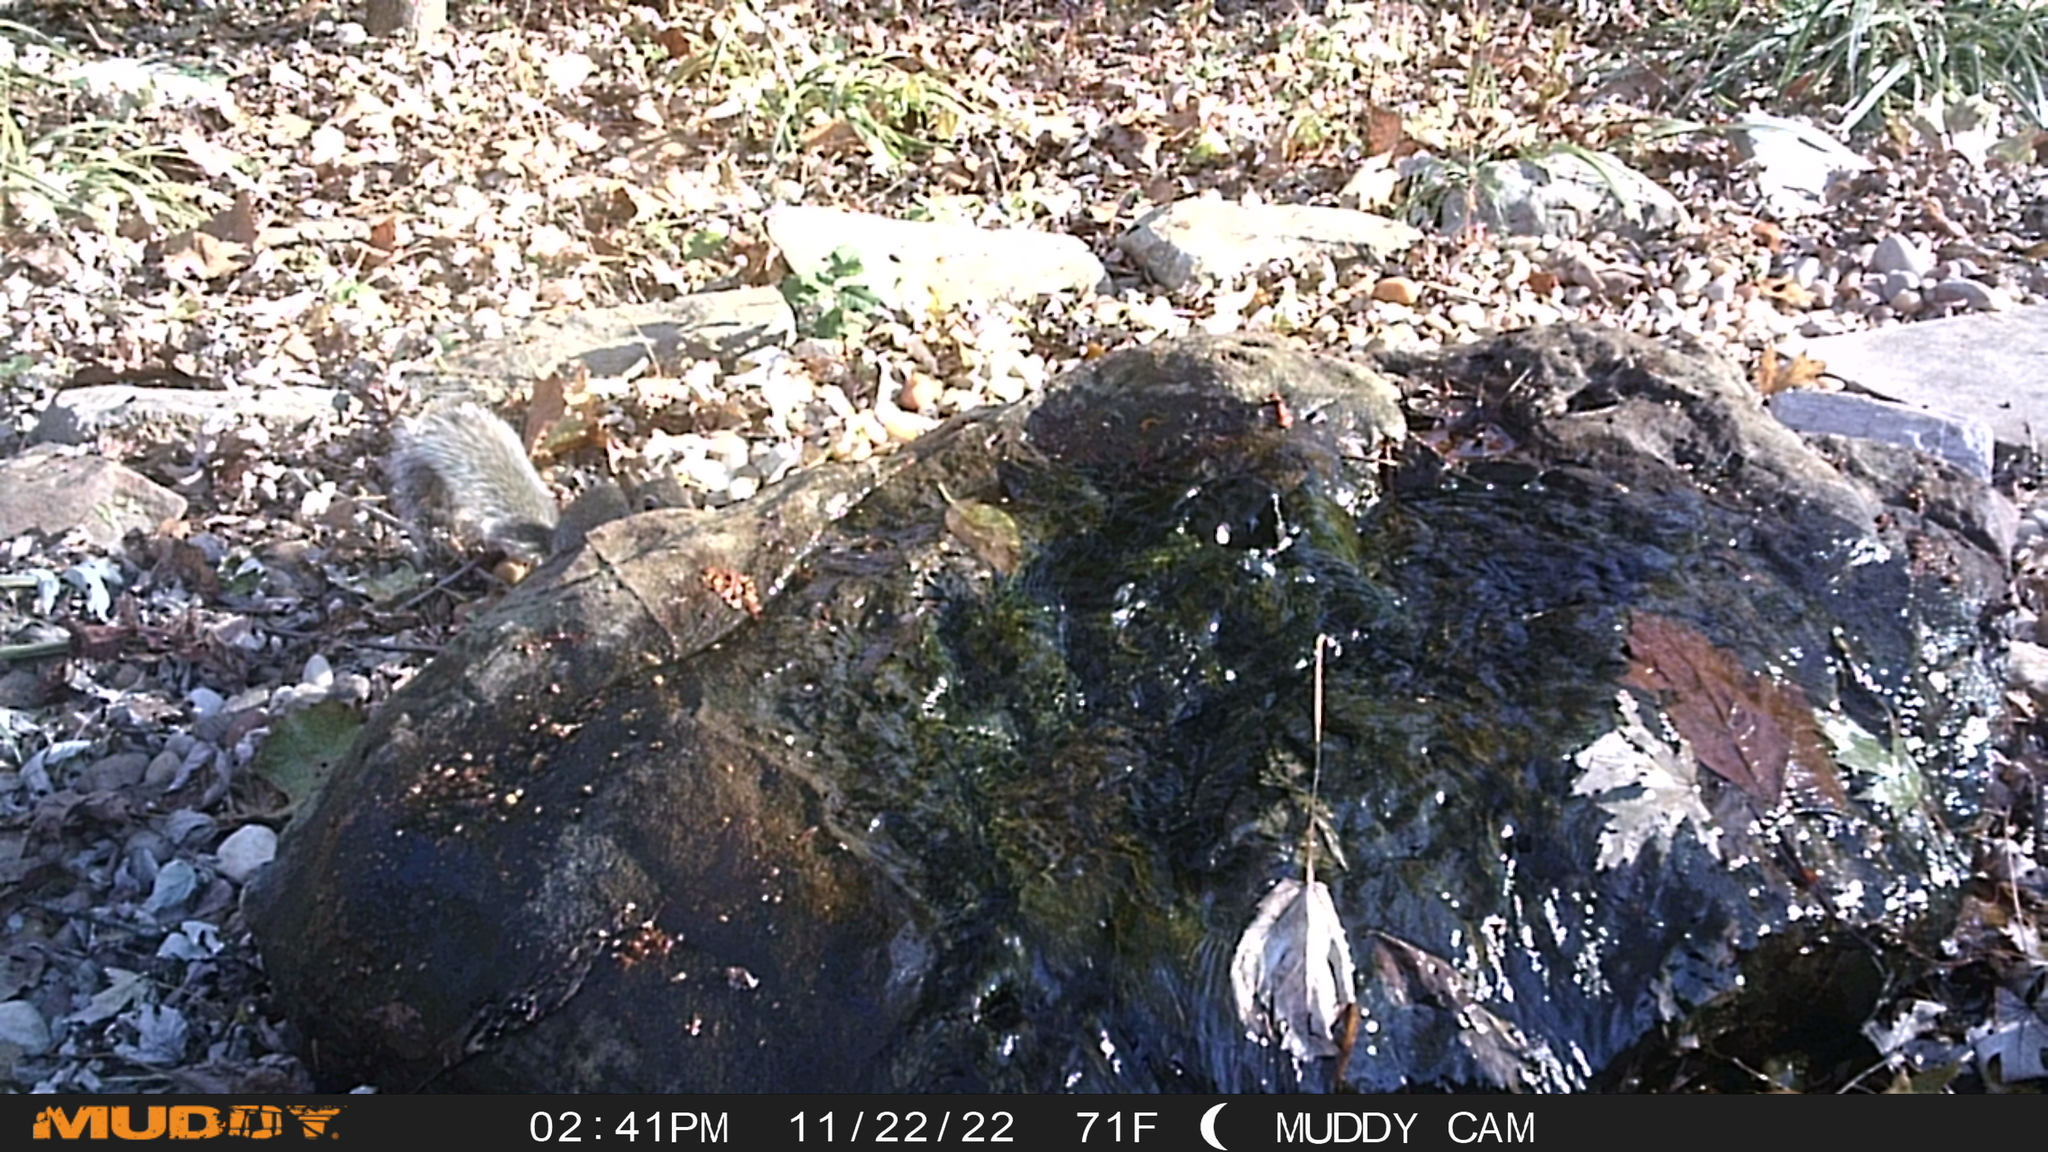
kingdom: Animalia
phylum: Chordata
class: Mammalia
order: Rodentia
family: Sciuridae
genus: Sciurus
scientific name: Sciurus carolinensis
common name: Eastern gray squirrel
